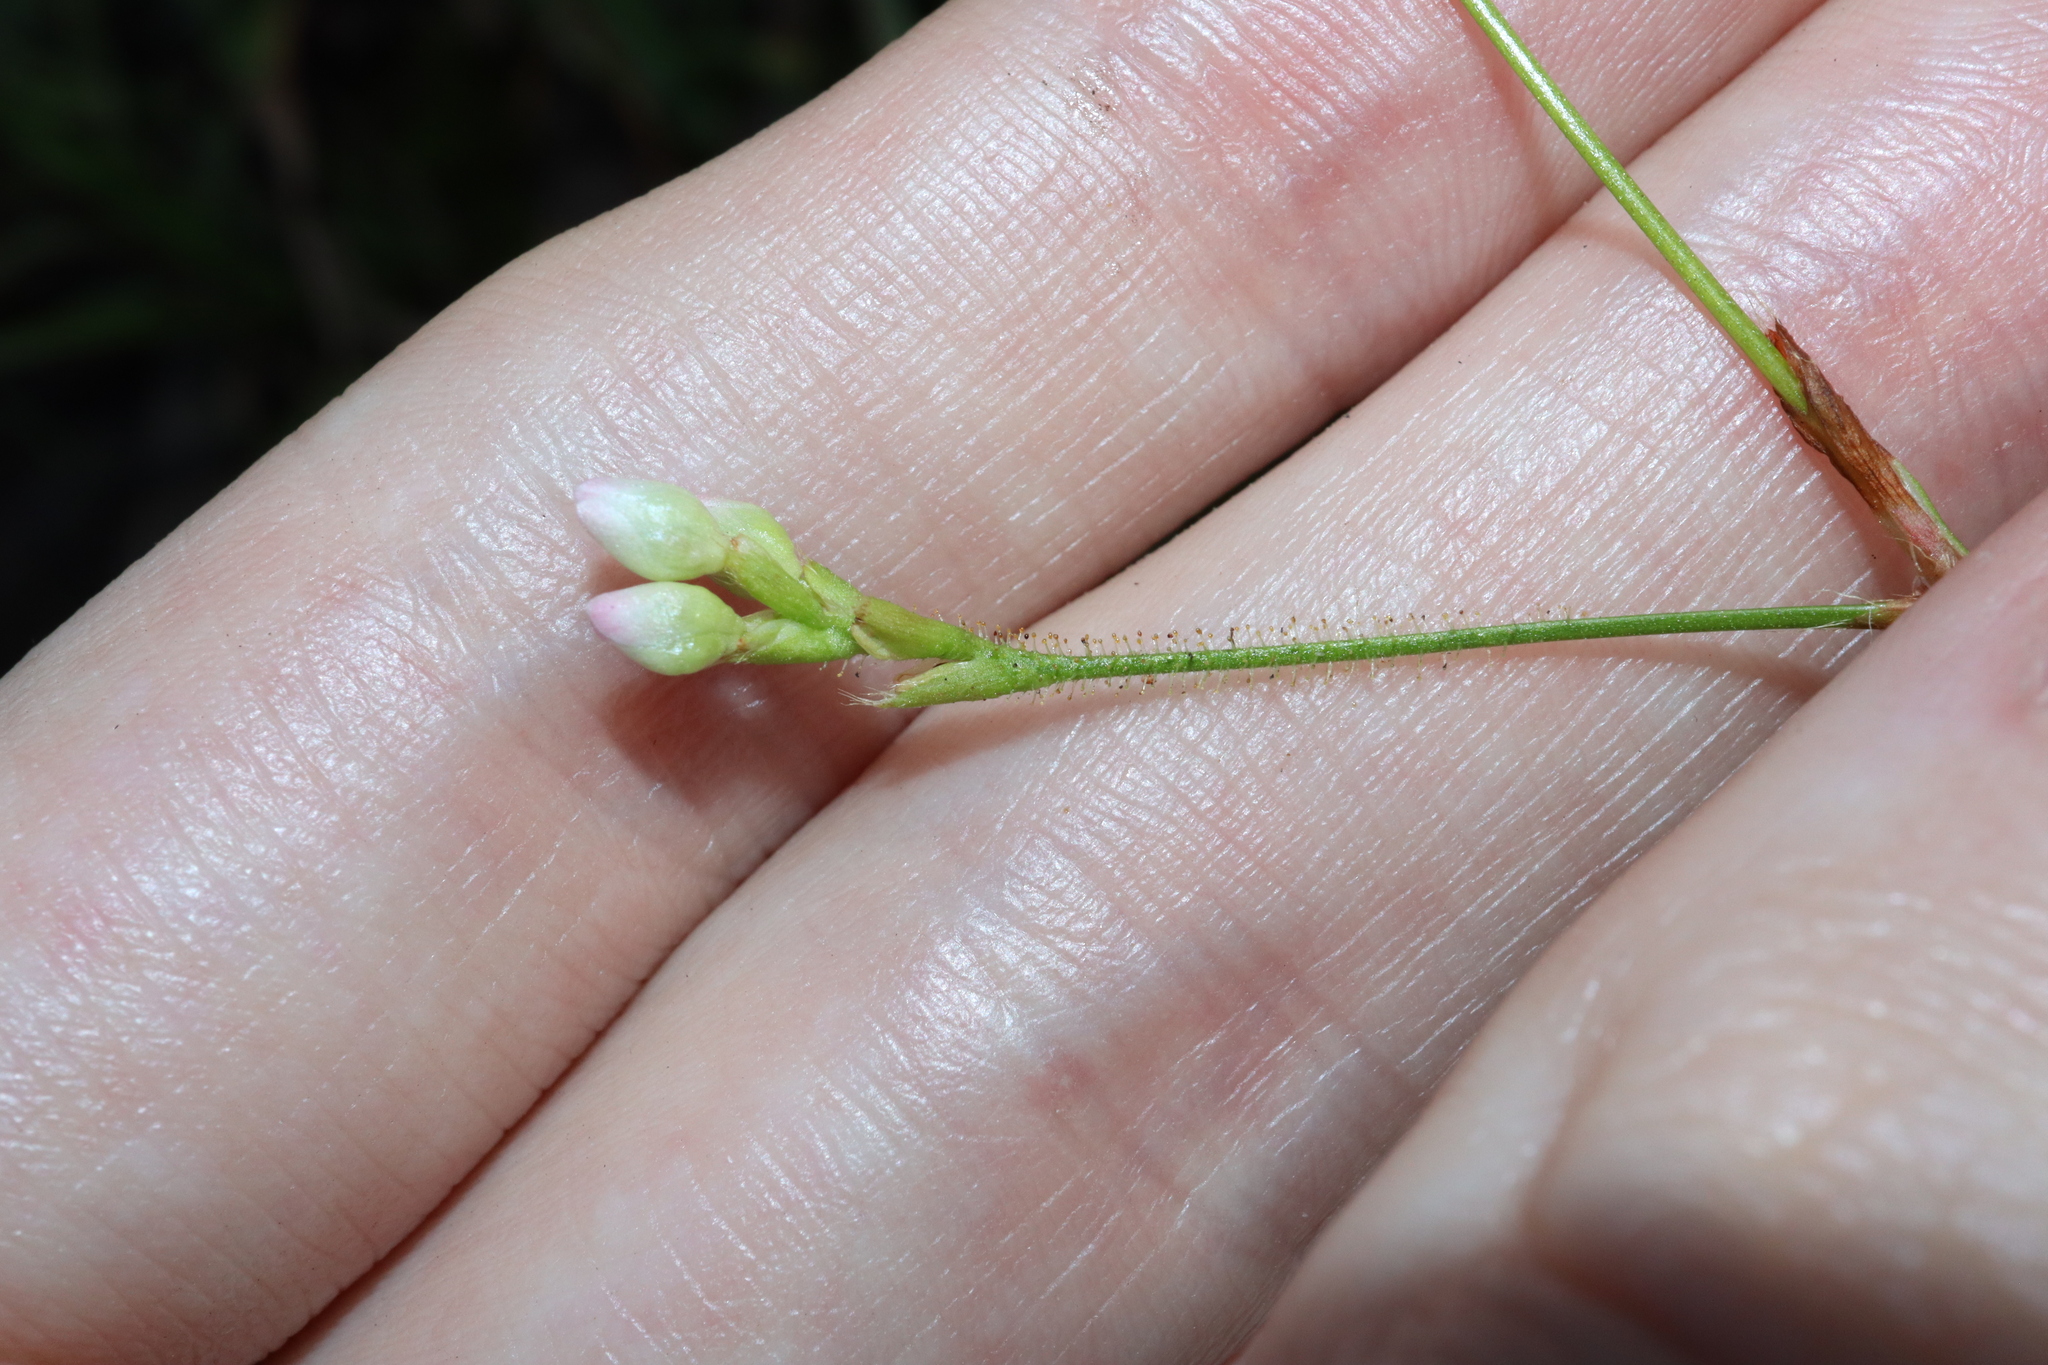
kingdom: Plantae
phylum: Tracheophyta
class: Magnoliopsida
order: Caryophyllales
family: Polygonaceae
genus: Persicaria
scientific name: Persicaria strigosa
